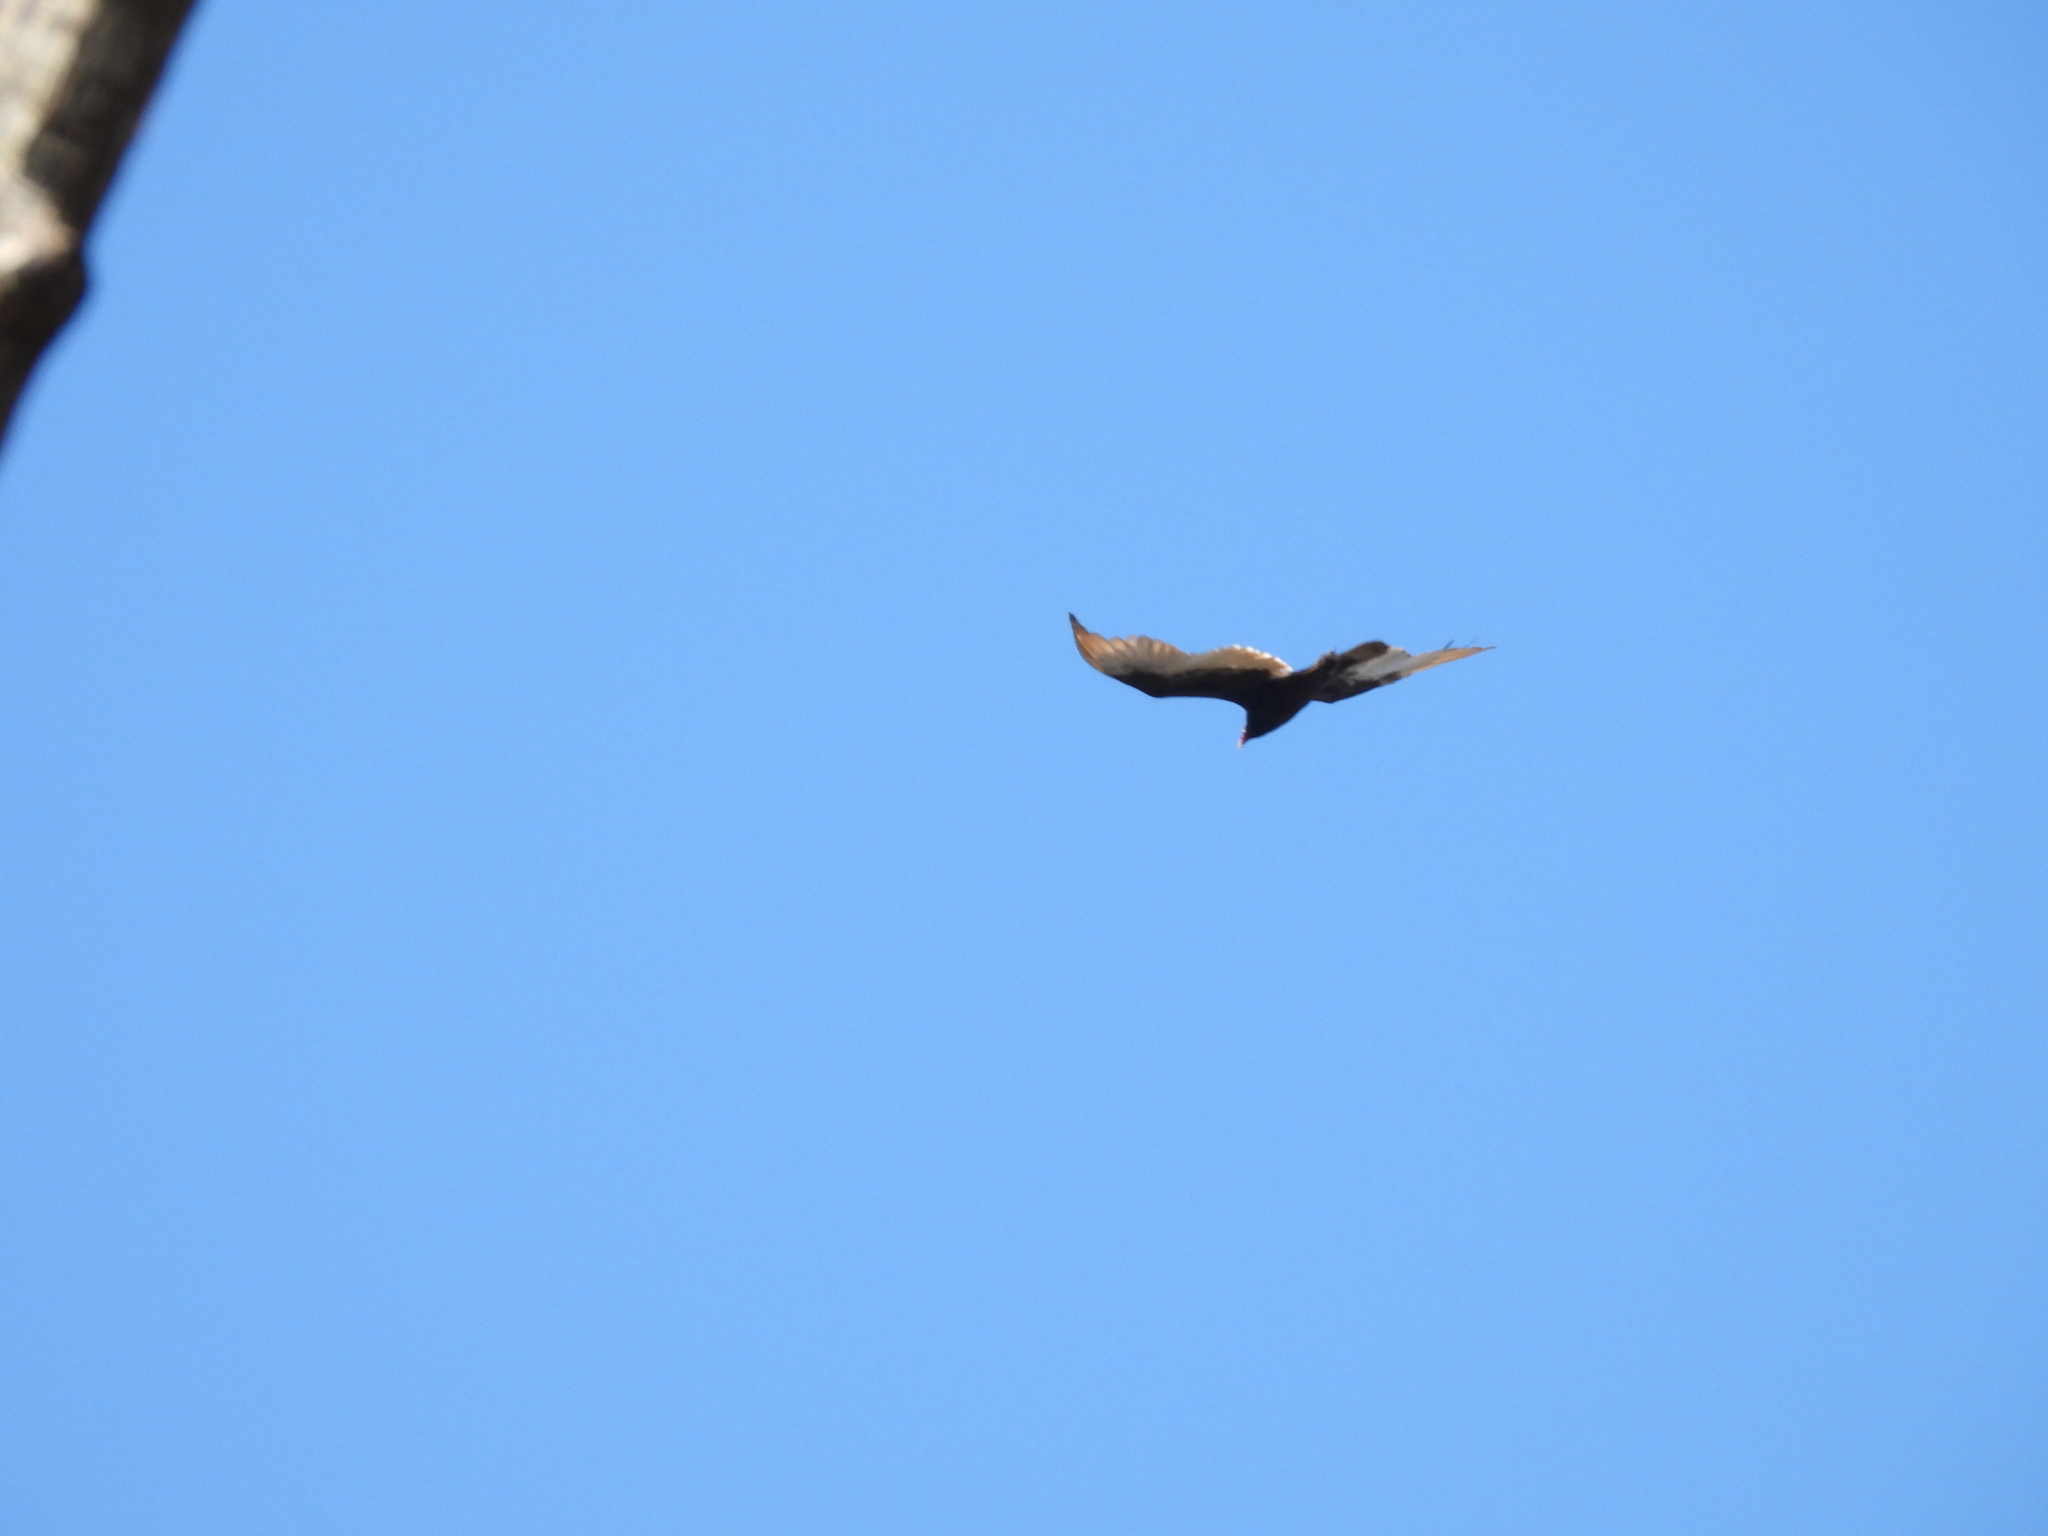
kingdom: Animalia
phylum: Chordata
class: Aves
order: Accipitriformes
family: Cathartidae
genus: Cathartes
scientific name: Cathartes aura
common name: Turkey vulture
